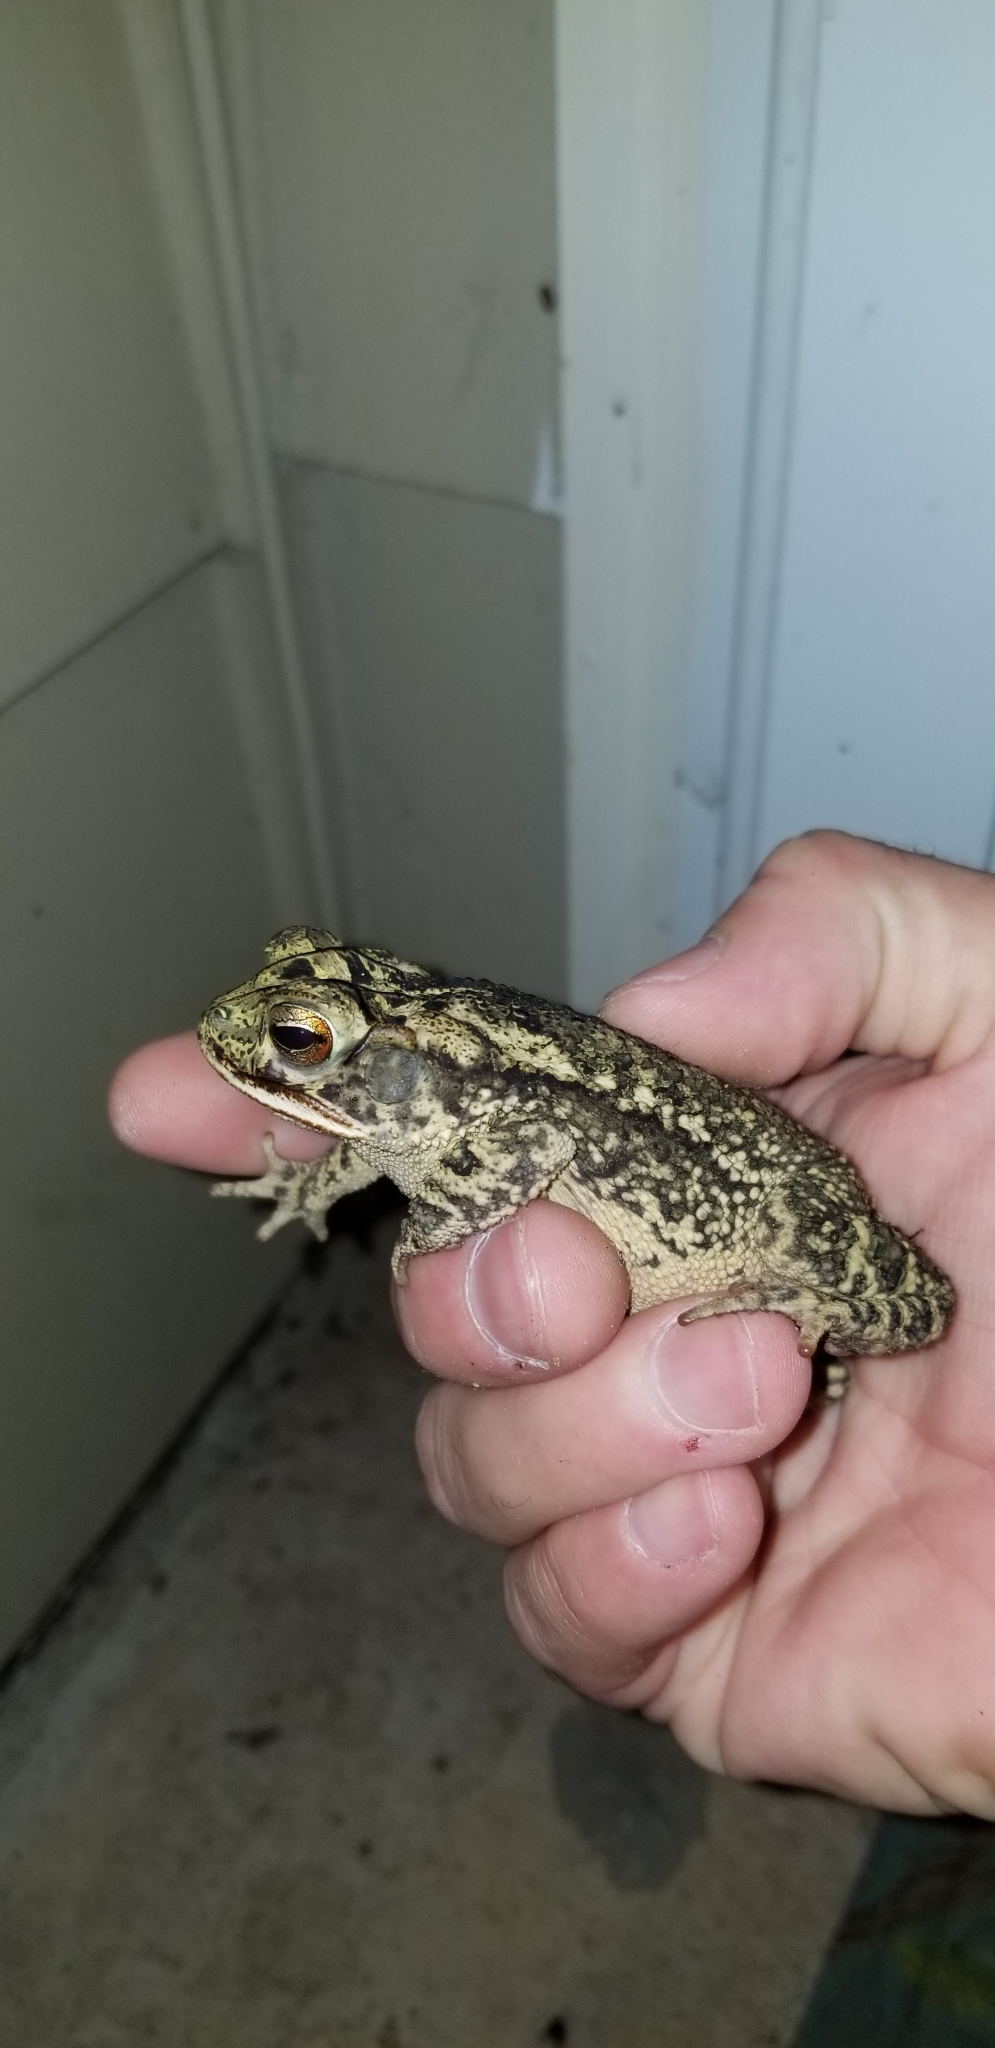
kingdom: Animalia
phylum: Chordata
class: Amphibia
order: Anura
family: Bufonidae
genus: Incilius
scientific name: Incilius nebulifer
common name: Gulf coast toad
